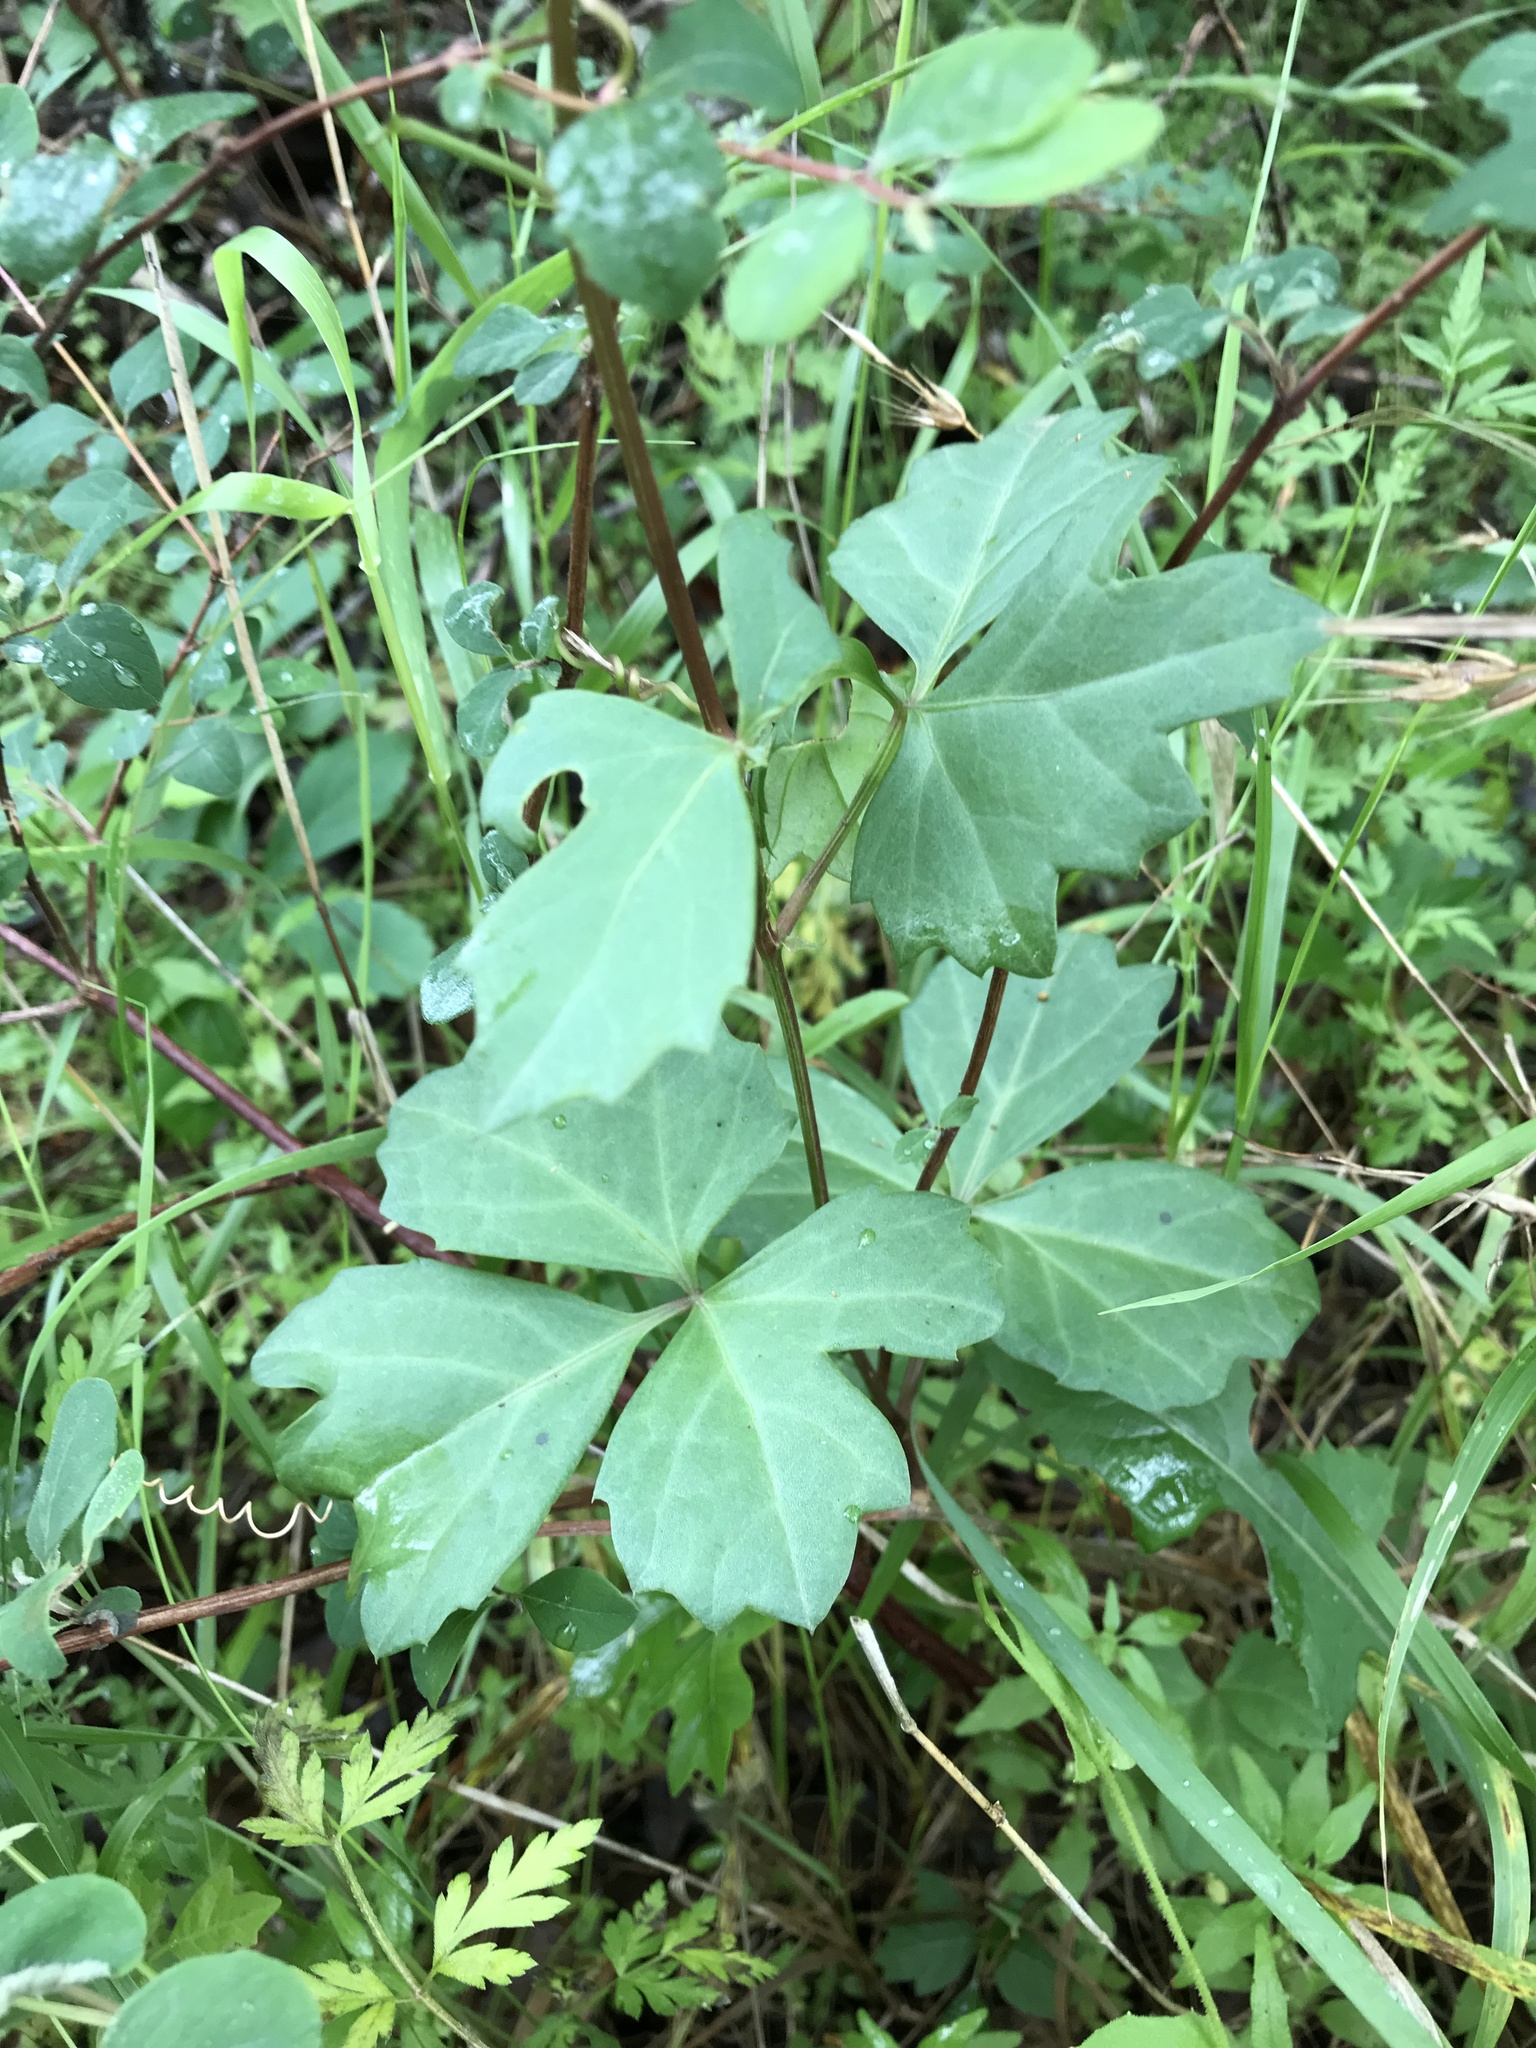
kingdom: Plantae
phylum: Tracheophyta
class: Magnoliopsida
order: Vitales
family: Vitaceae
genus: Cissus
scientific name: Cissus trifoliata
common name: Vine-sorrel
